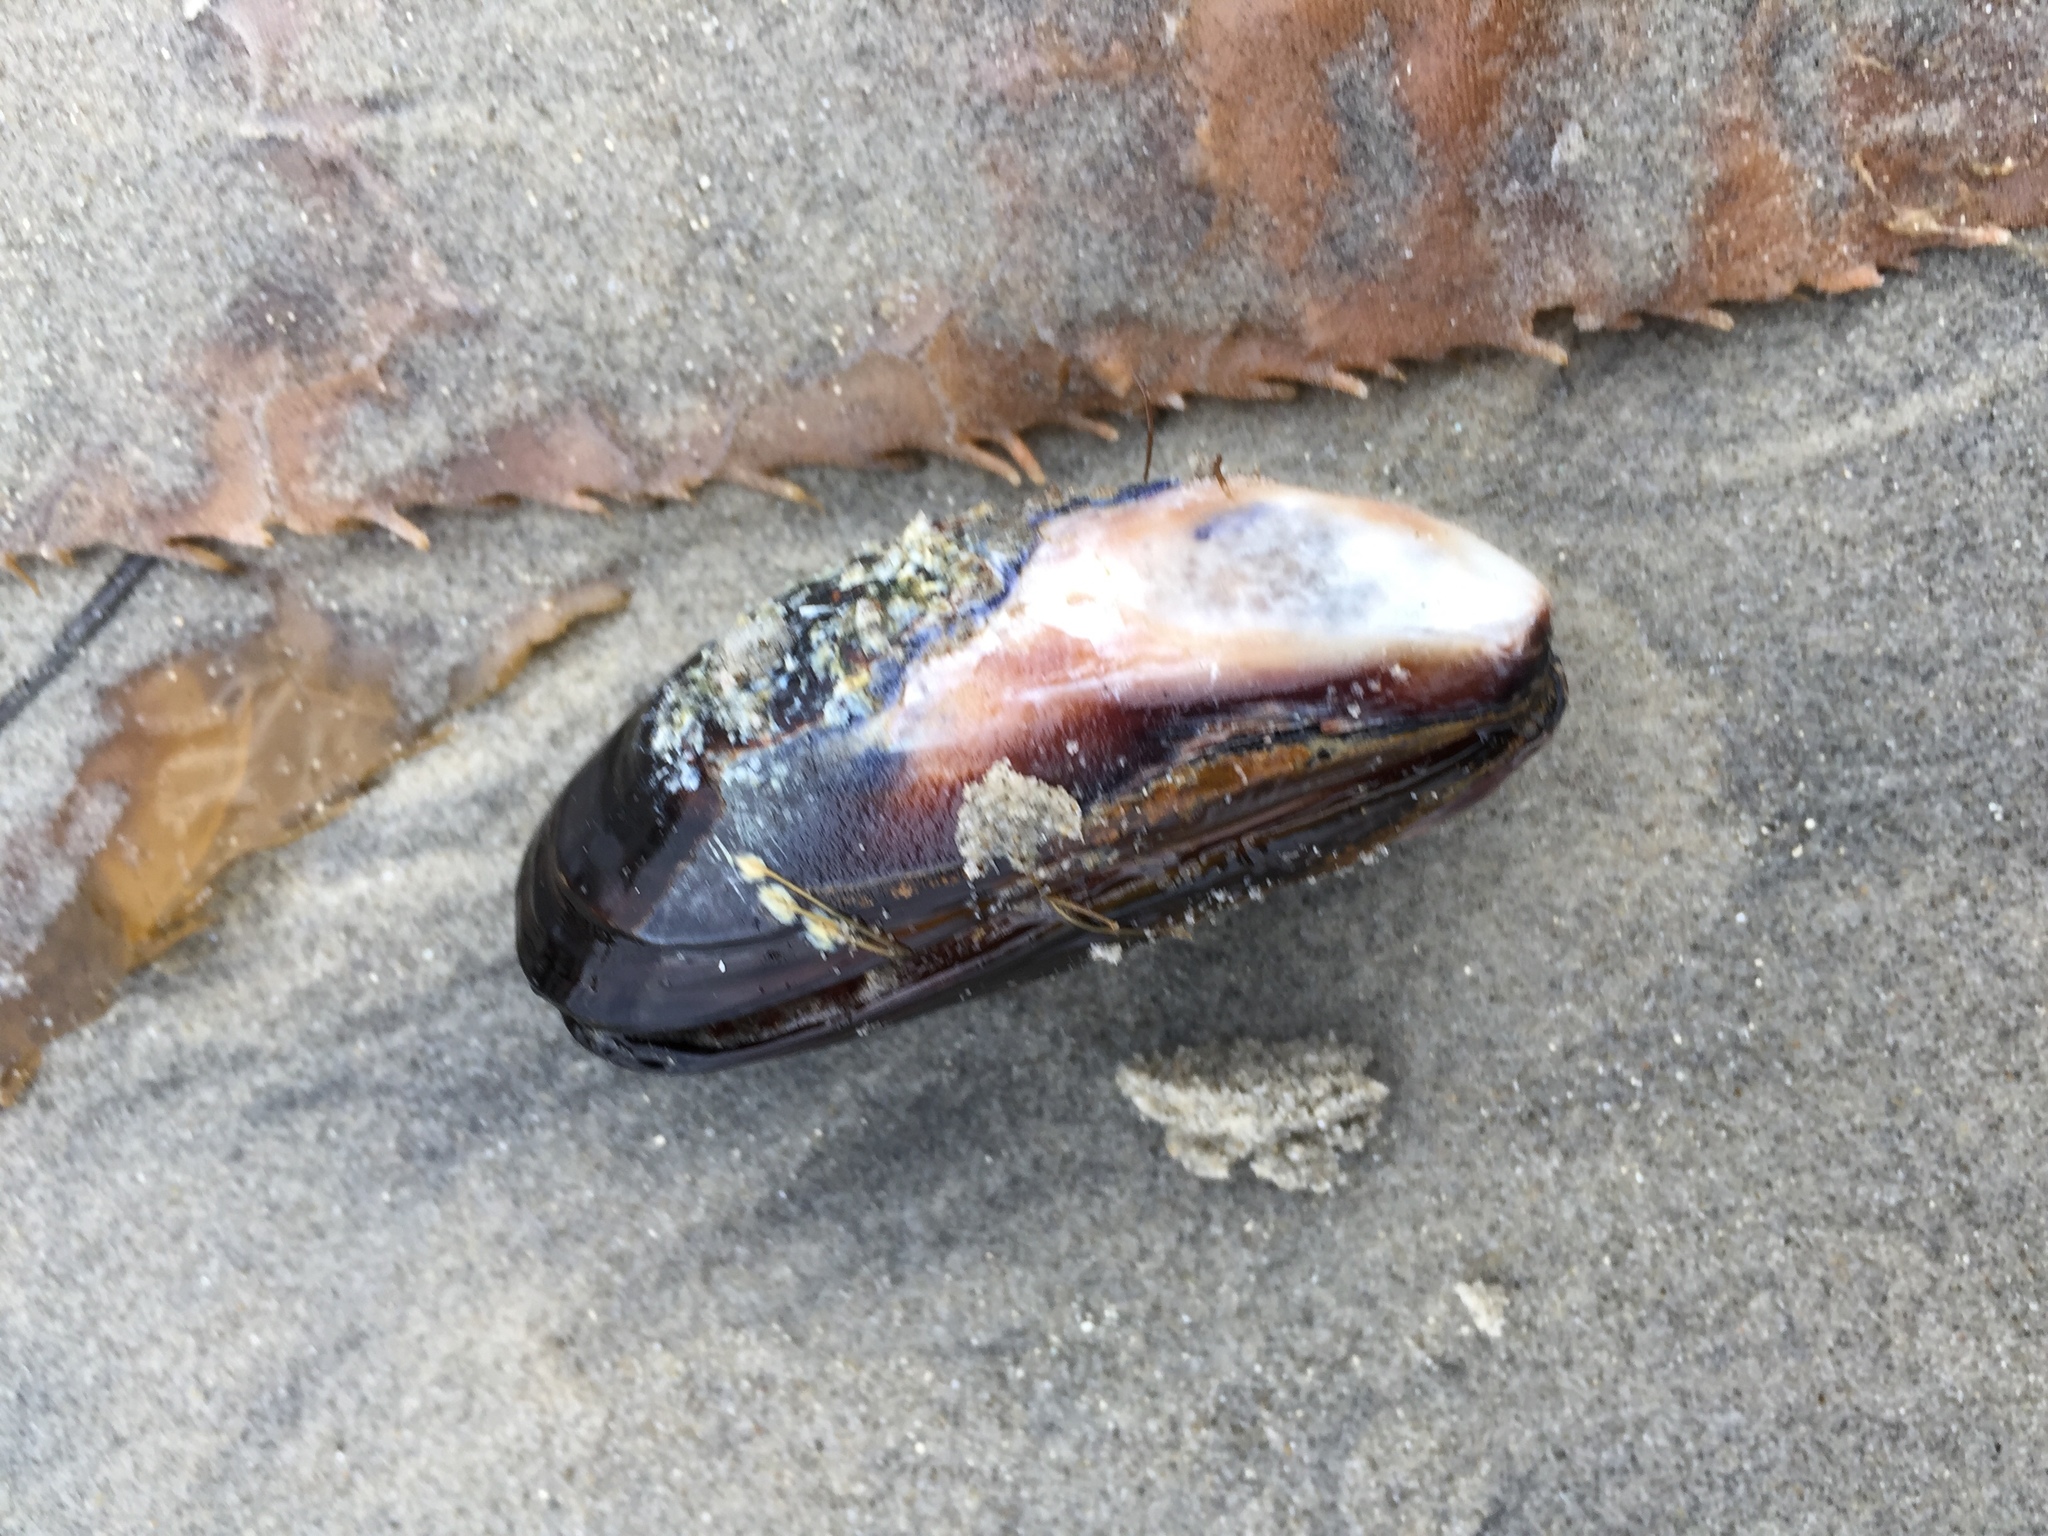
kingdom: Animalia
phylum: Mollusca
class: Bivalvia
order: Mytilida
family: Mytilidae
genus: Mytilus
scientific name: Mytilus californianus
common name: California mussel
